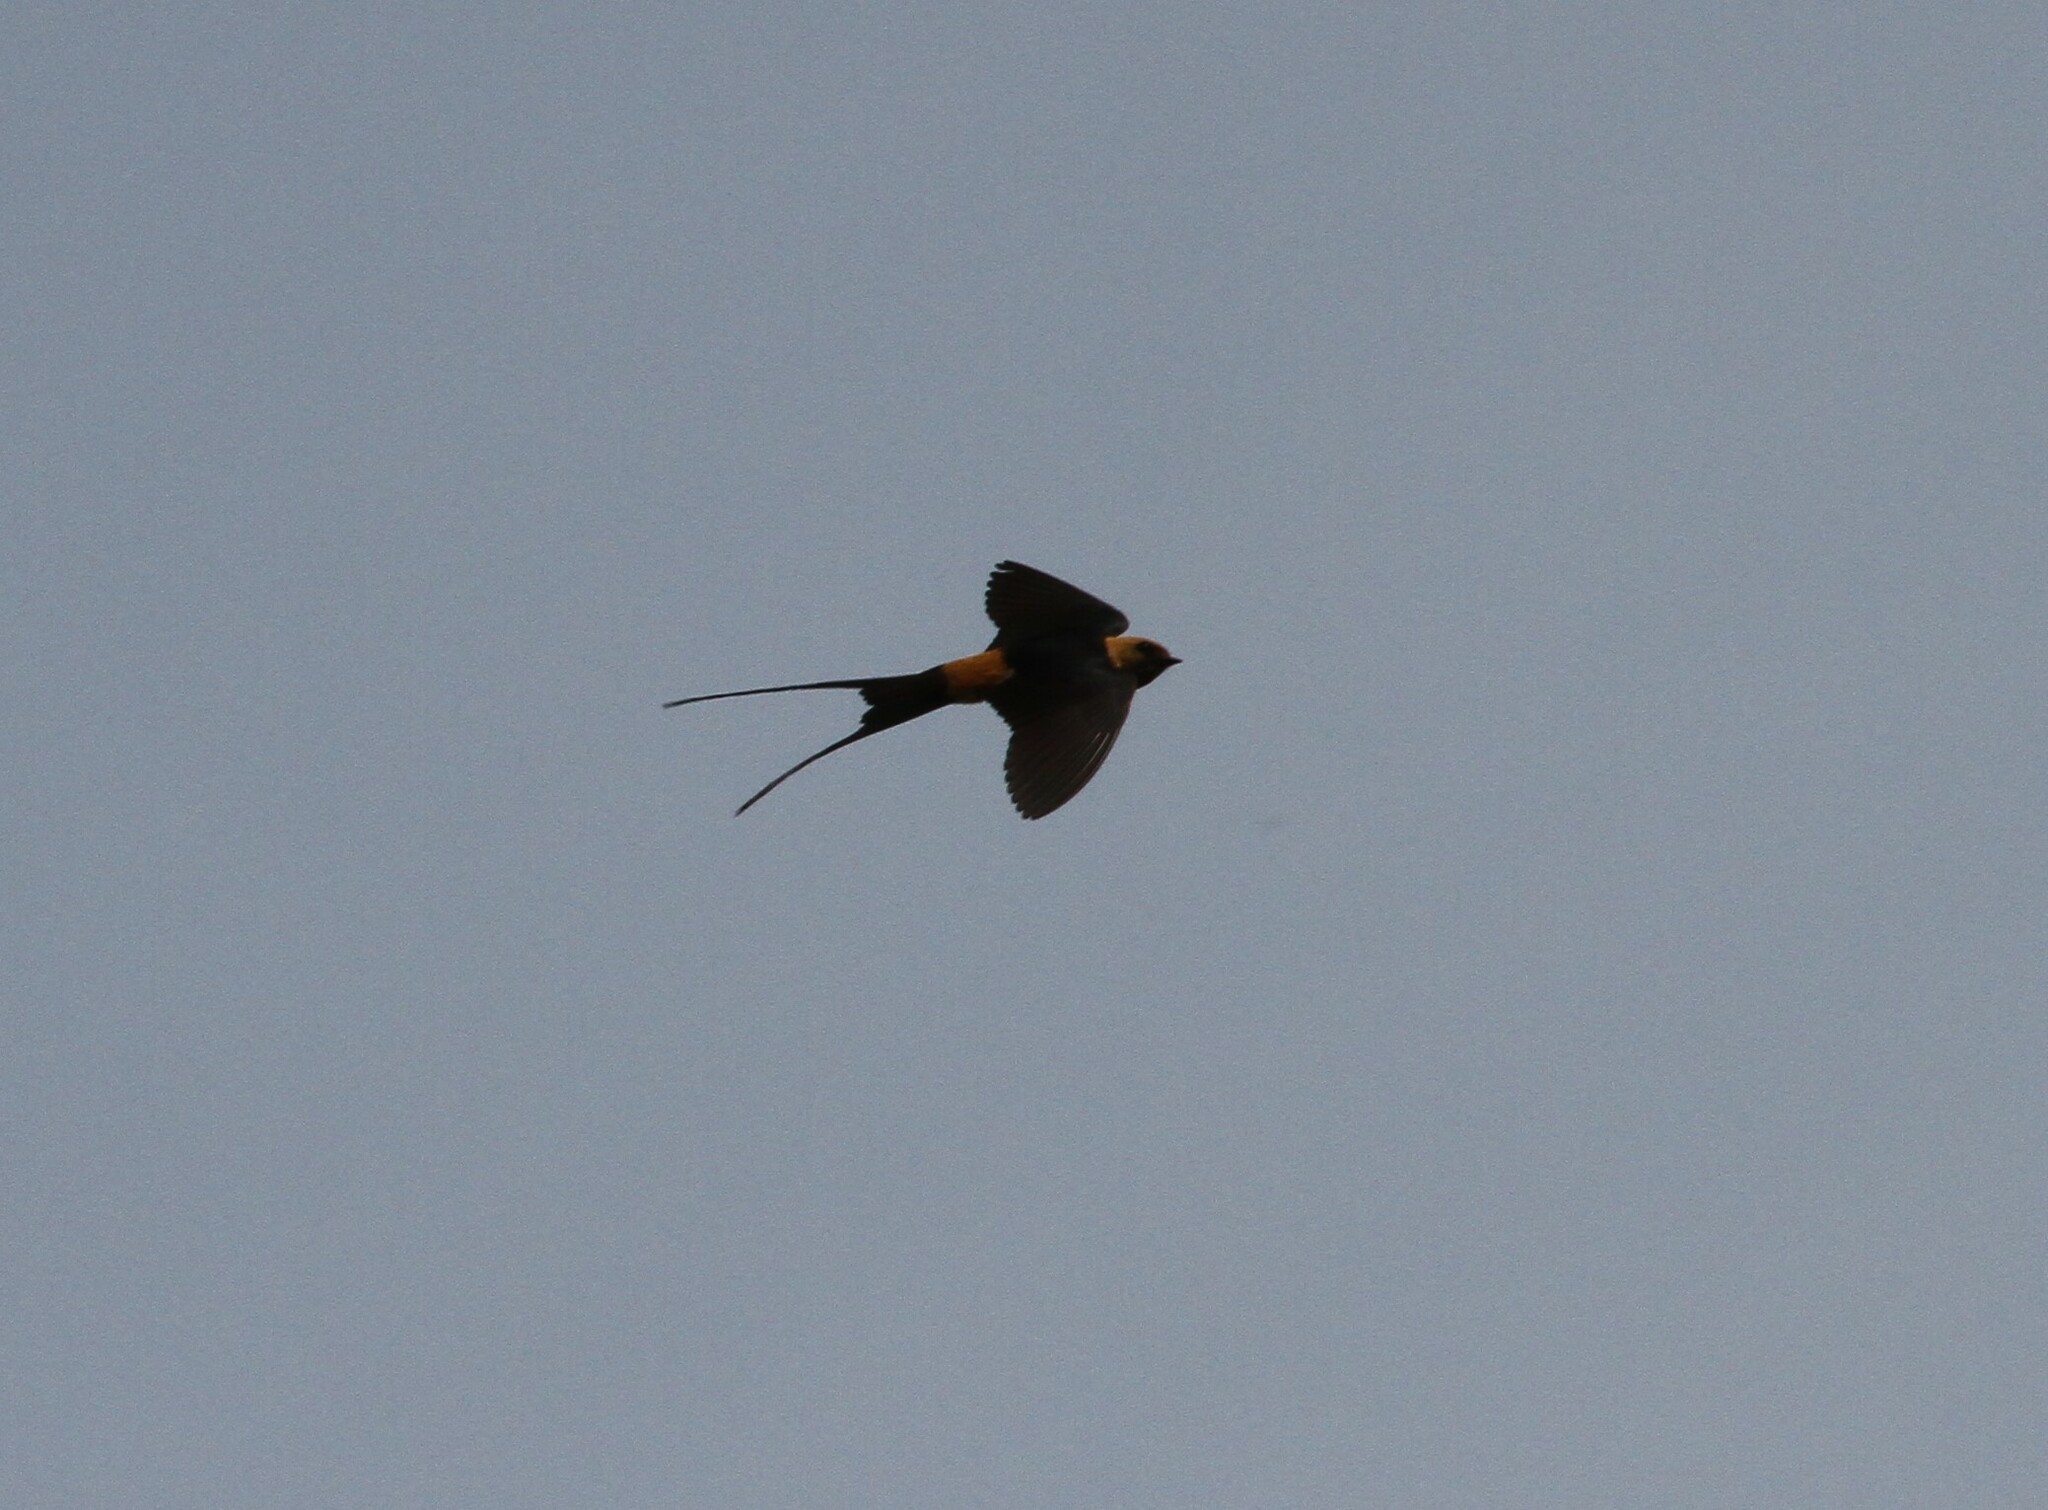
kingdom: Animalia
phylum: Chordata
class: Aves
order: Passeriformes
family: Hirundinidae
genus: Cecropis
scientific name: Cecropis abyssinica
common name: Lesser striped-swallow
